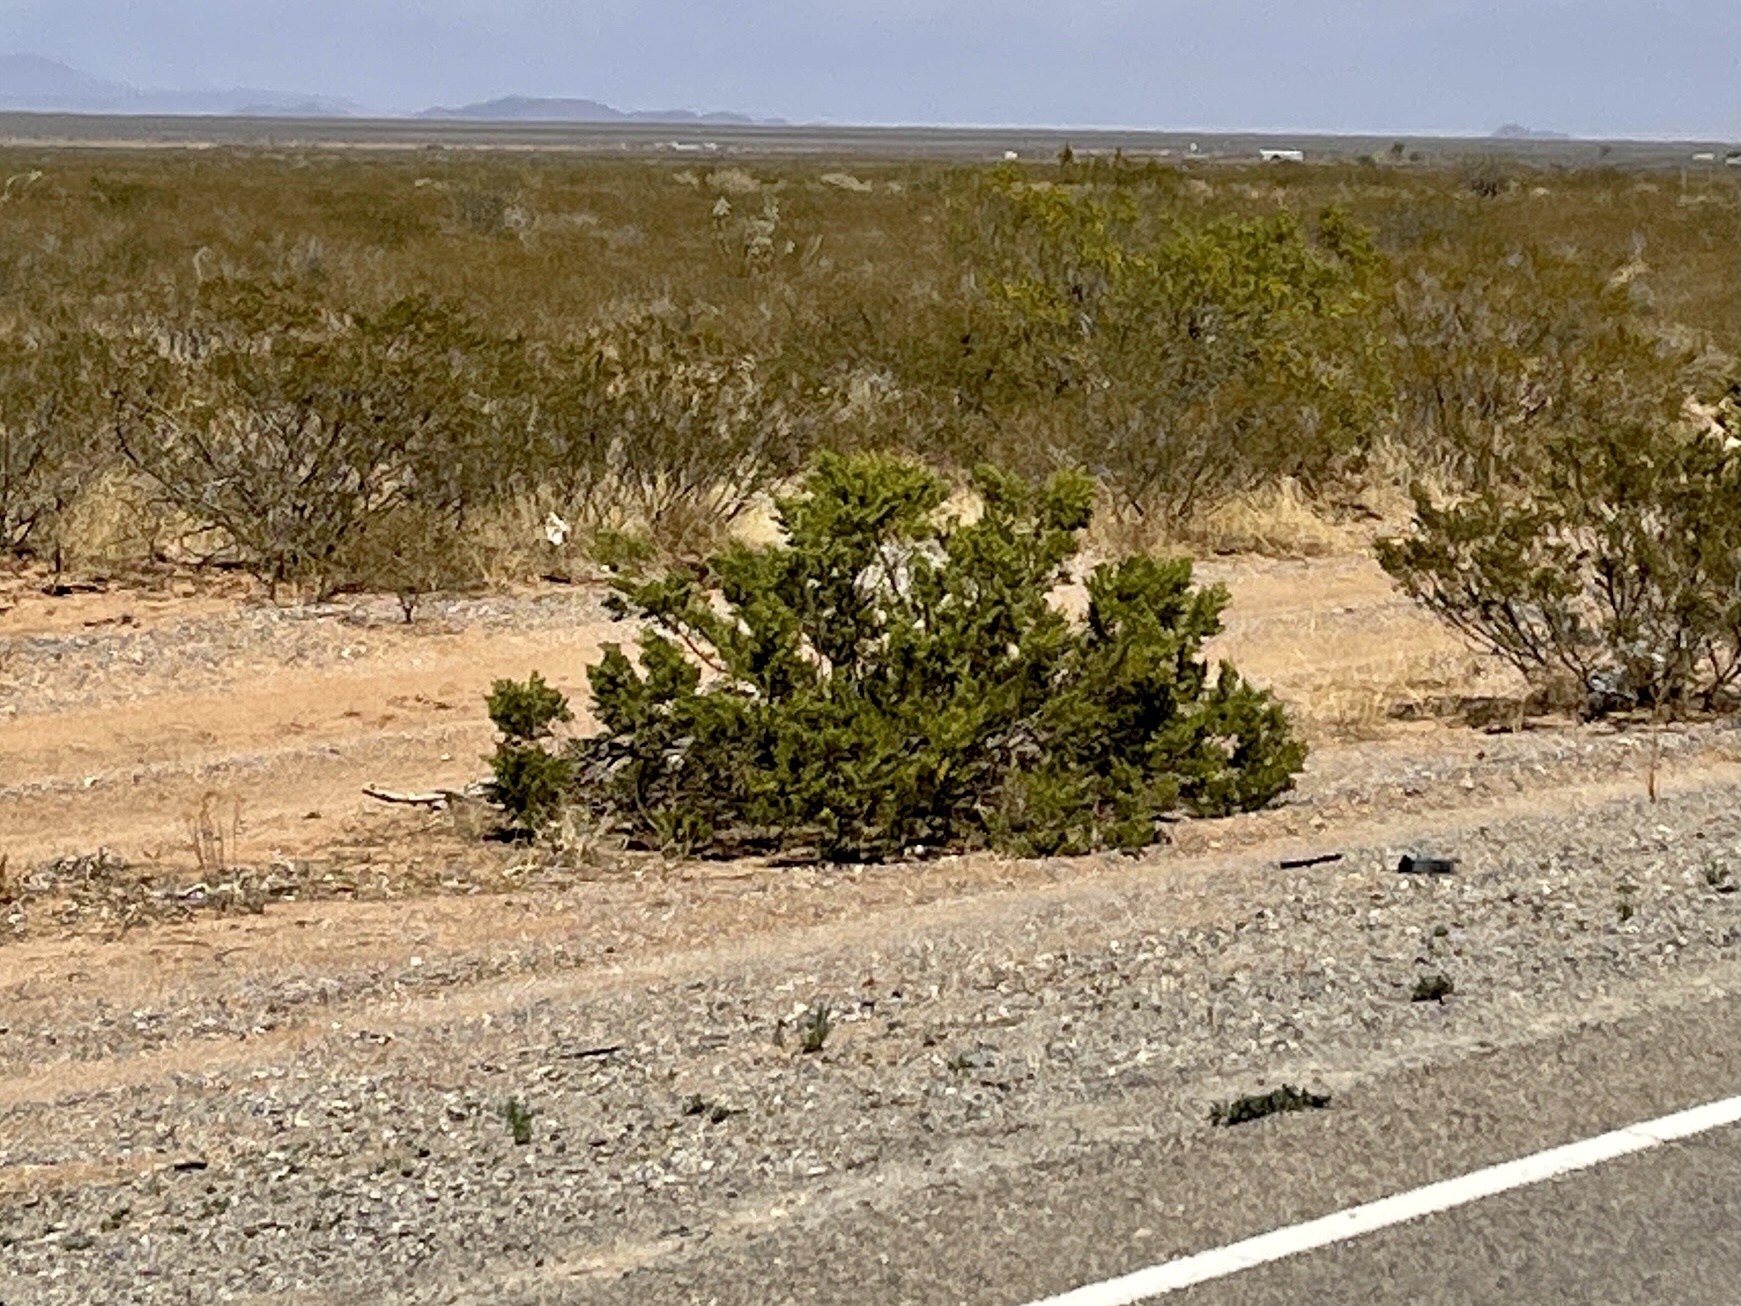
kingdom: Plantae
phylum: Tracheophyta
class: Magnoliopsida
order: Zygophyllales
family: Zygophyllaceae
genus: Larrea
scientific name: Larrea tridentata
